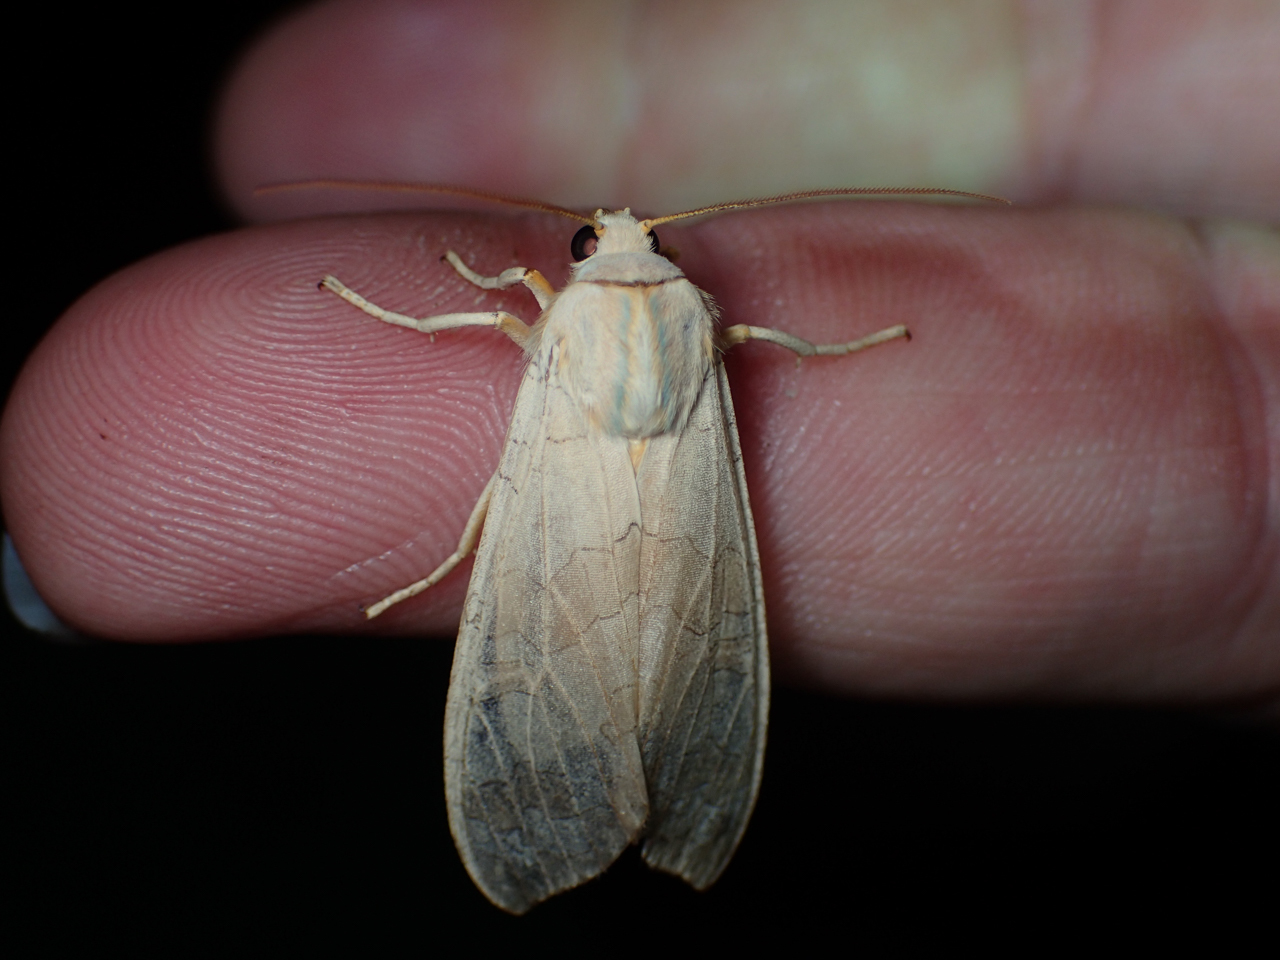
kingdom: Animalia
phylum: Arthropoda
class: Insecta
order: Lepidoptera
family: Erebidae
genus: Halysidota
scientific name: Halysidota
